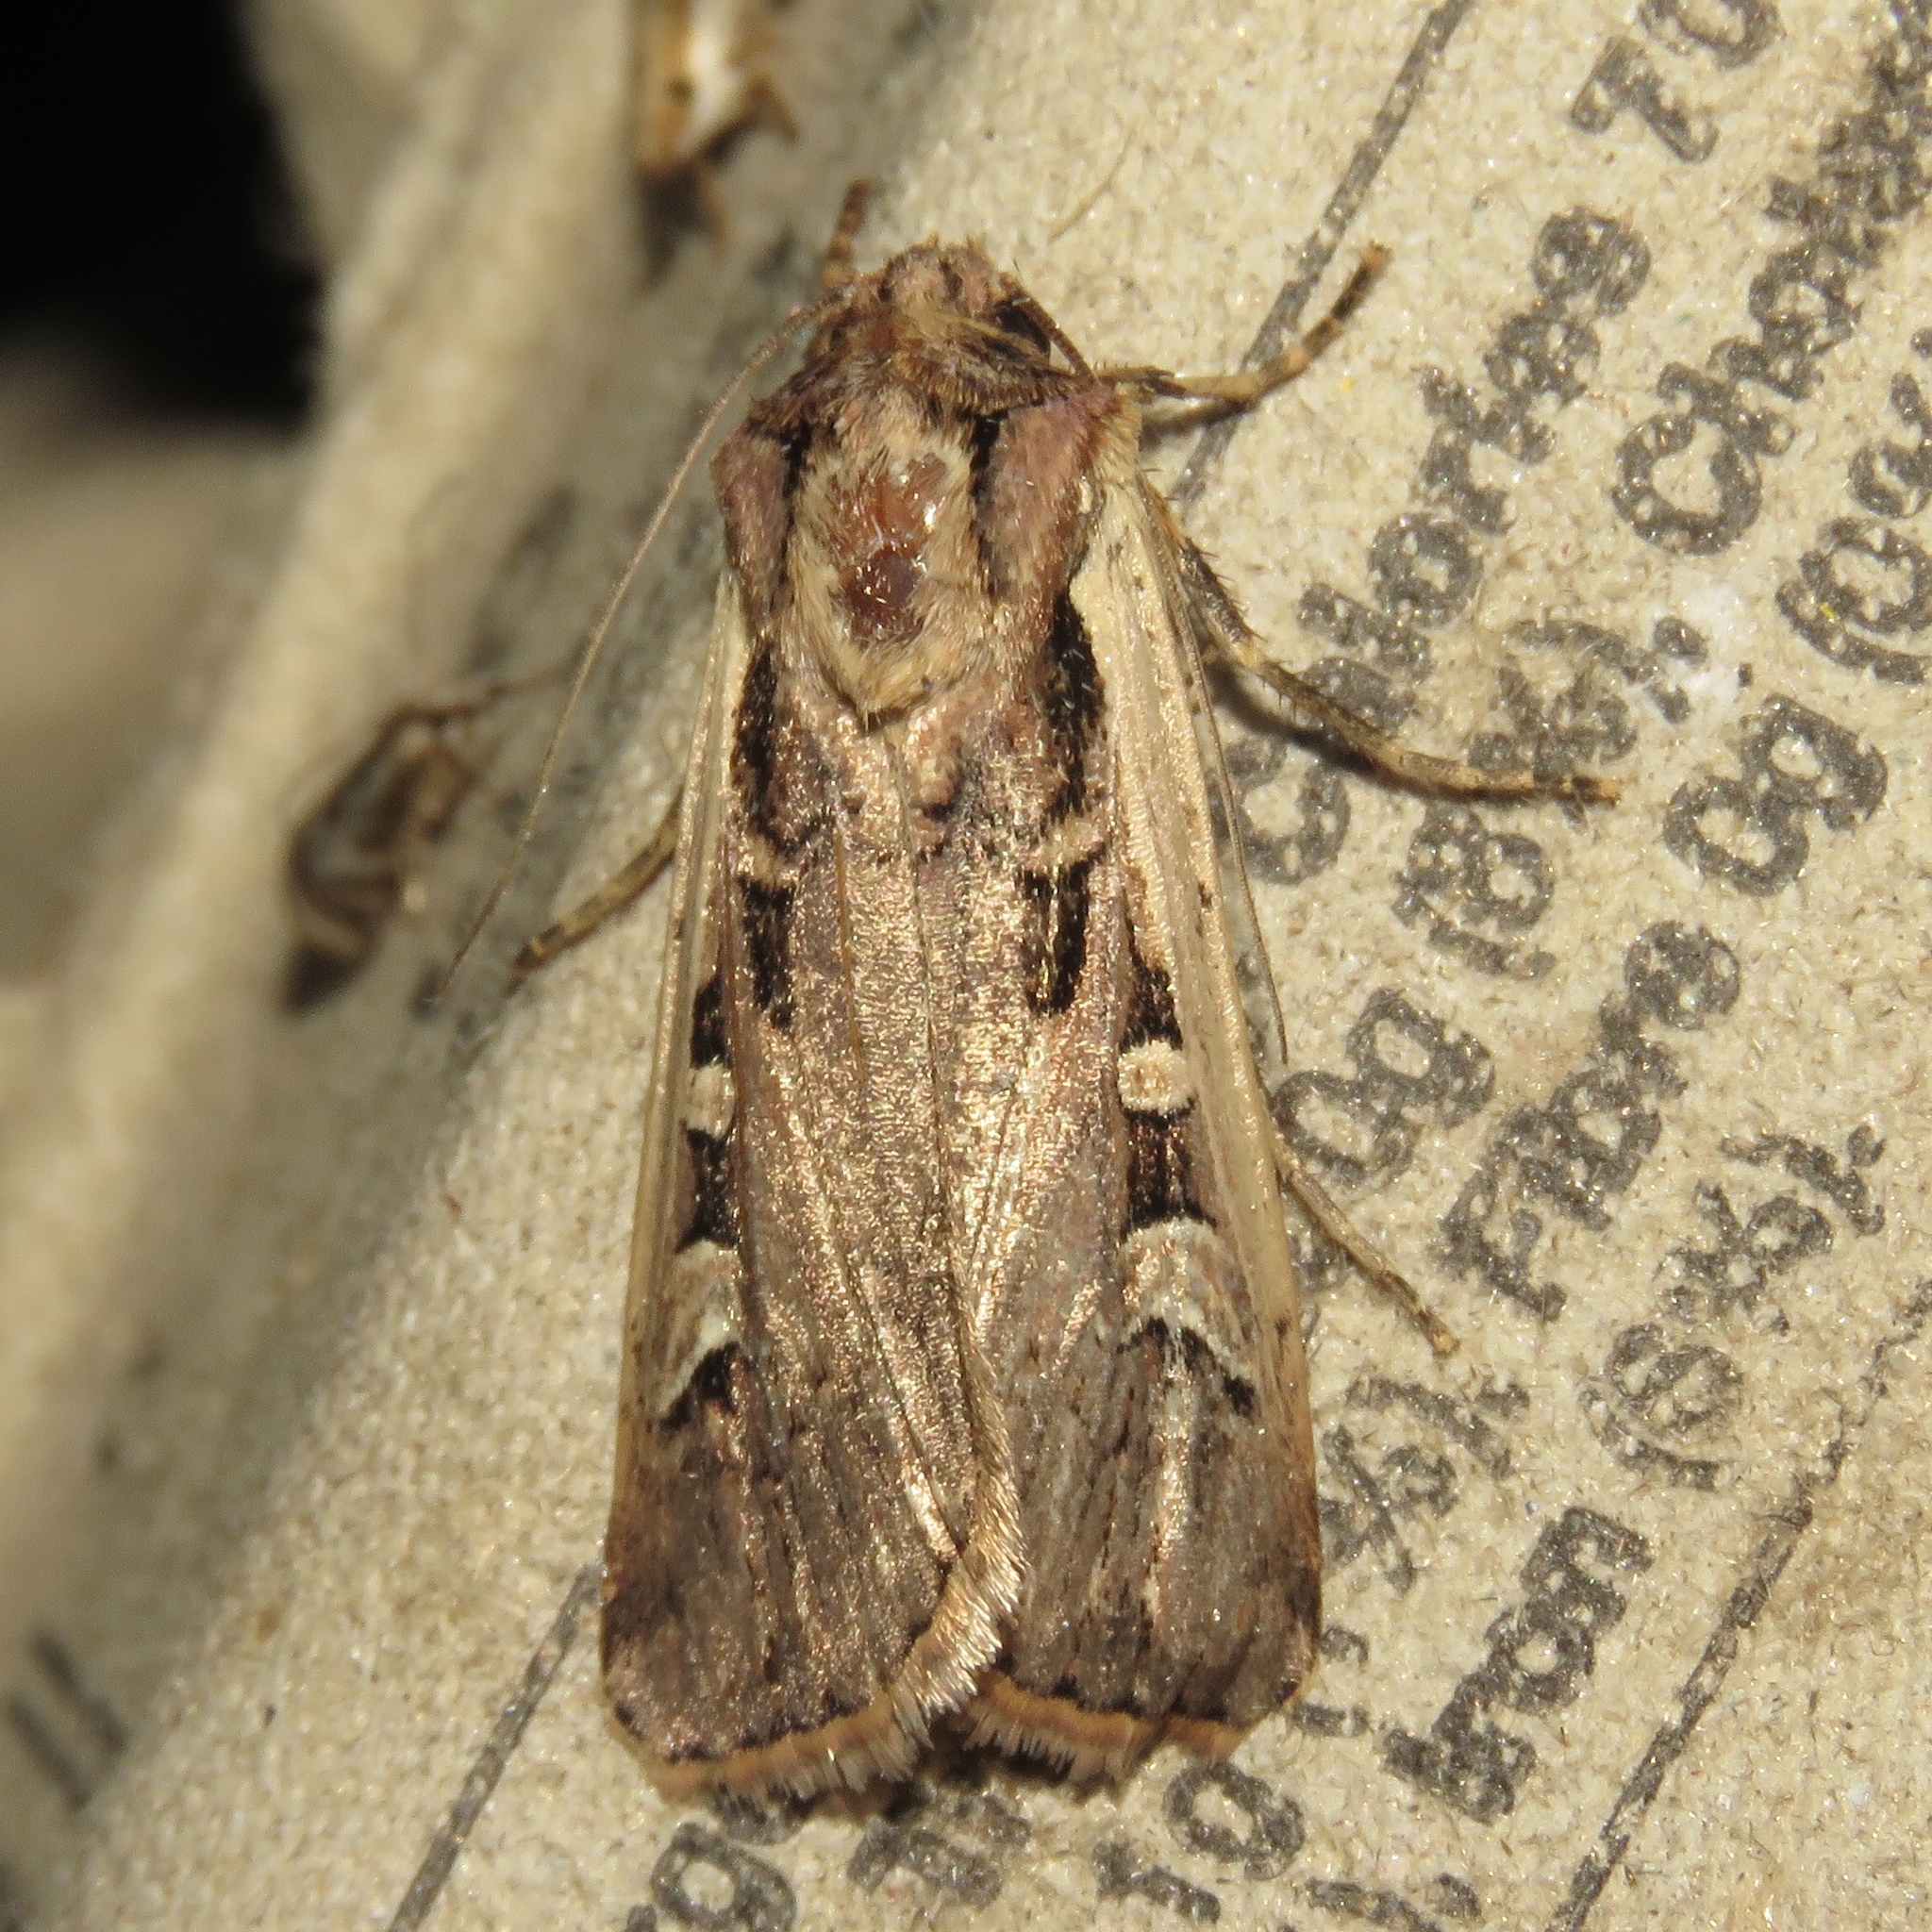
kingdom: Animalia
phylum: Arthropoda
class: Insecta
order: Lepidoptera
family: Noctuidae
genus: Striacosta
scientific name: Striacosta albicosta
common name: Western bean cutworm moth
